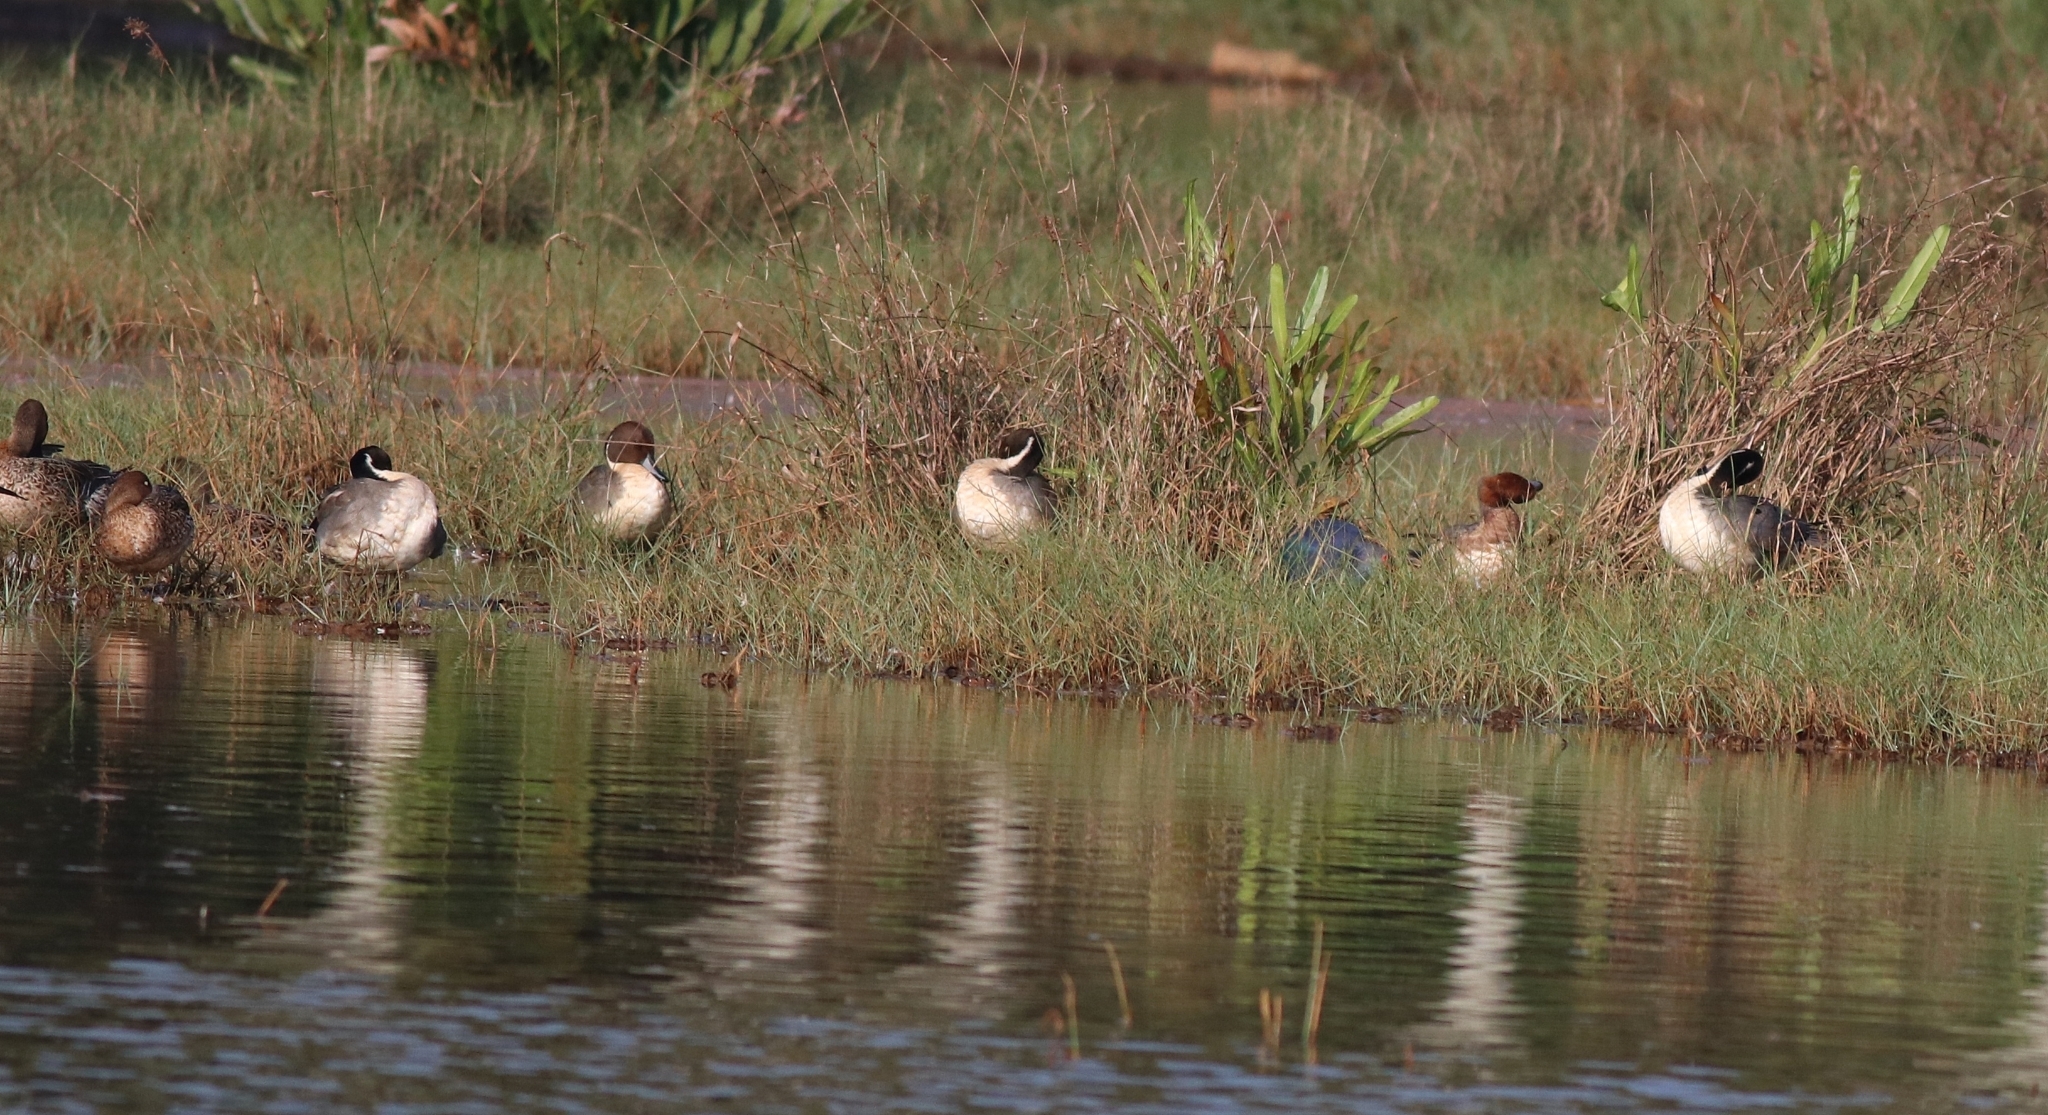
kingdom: Animalia
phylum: Chordata
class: Aves
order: Anseriformes
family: Anatidae
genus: Mareca
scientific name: Mareca penelope
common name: Eurasian wigeon
